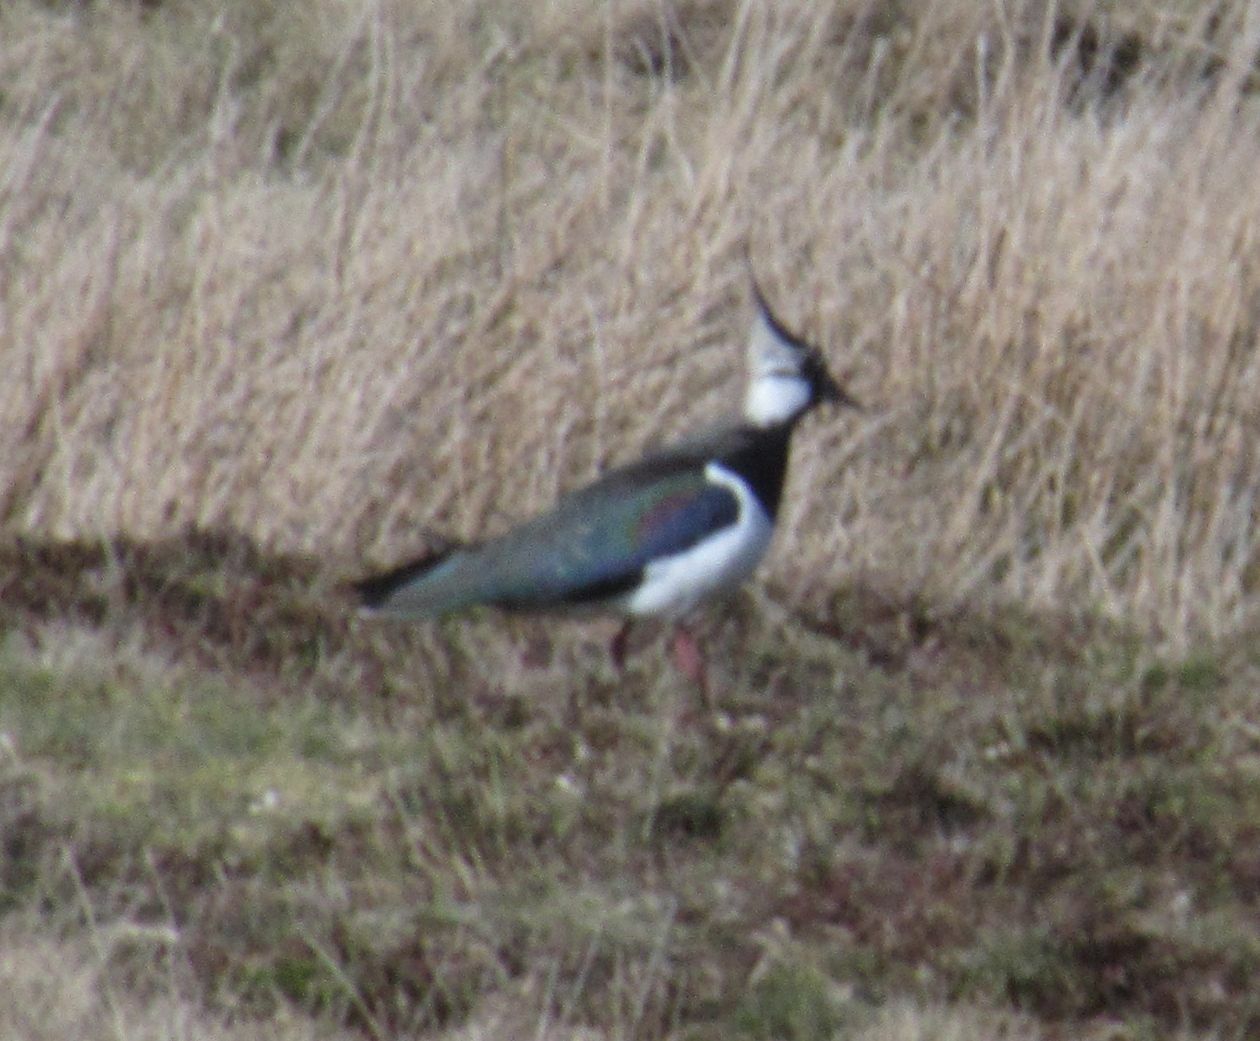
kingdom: Animalia
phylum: Chordata
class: Aves
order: Charadriiformes
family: Charadriidae
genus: Vanellus
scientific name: Vanellus vanellus
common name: Northern lapwing
